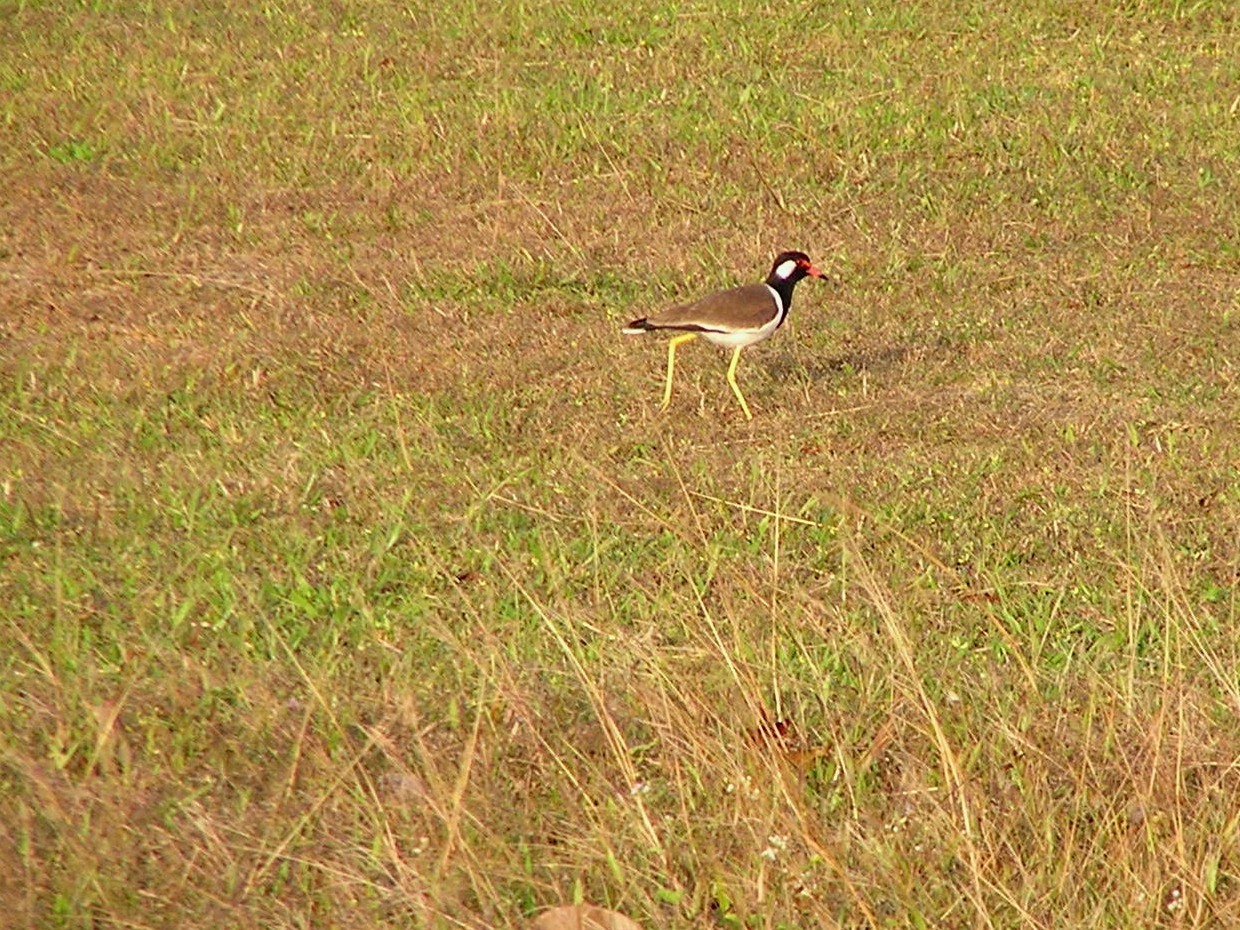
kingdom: Animalia
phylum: Chordata
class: Aves
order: Charadriiformes
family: Charadriidae
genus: Vanellus
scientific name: Vanellus indicus
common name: Red-wattled lapwing
